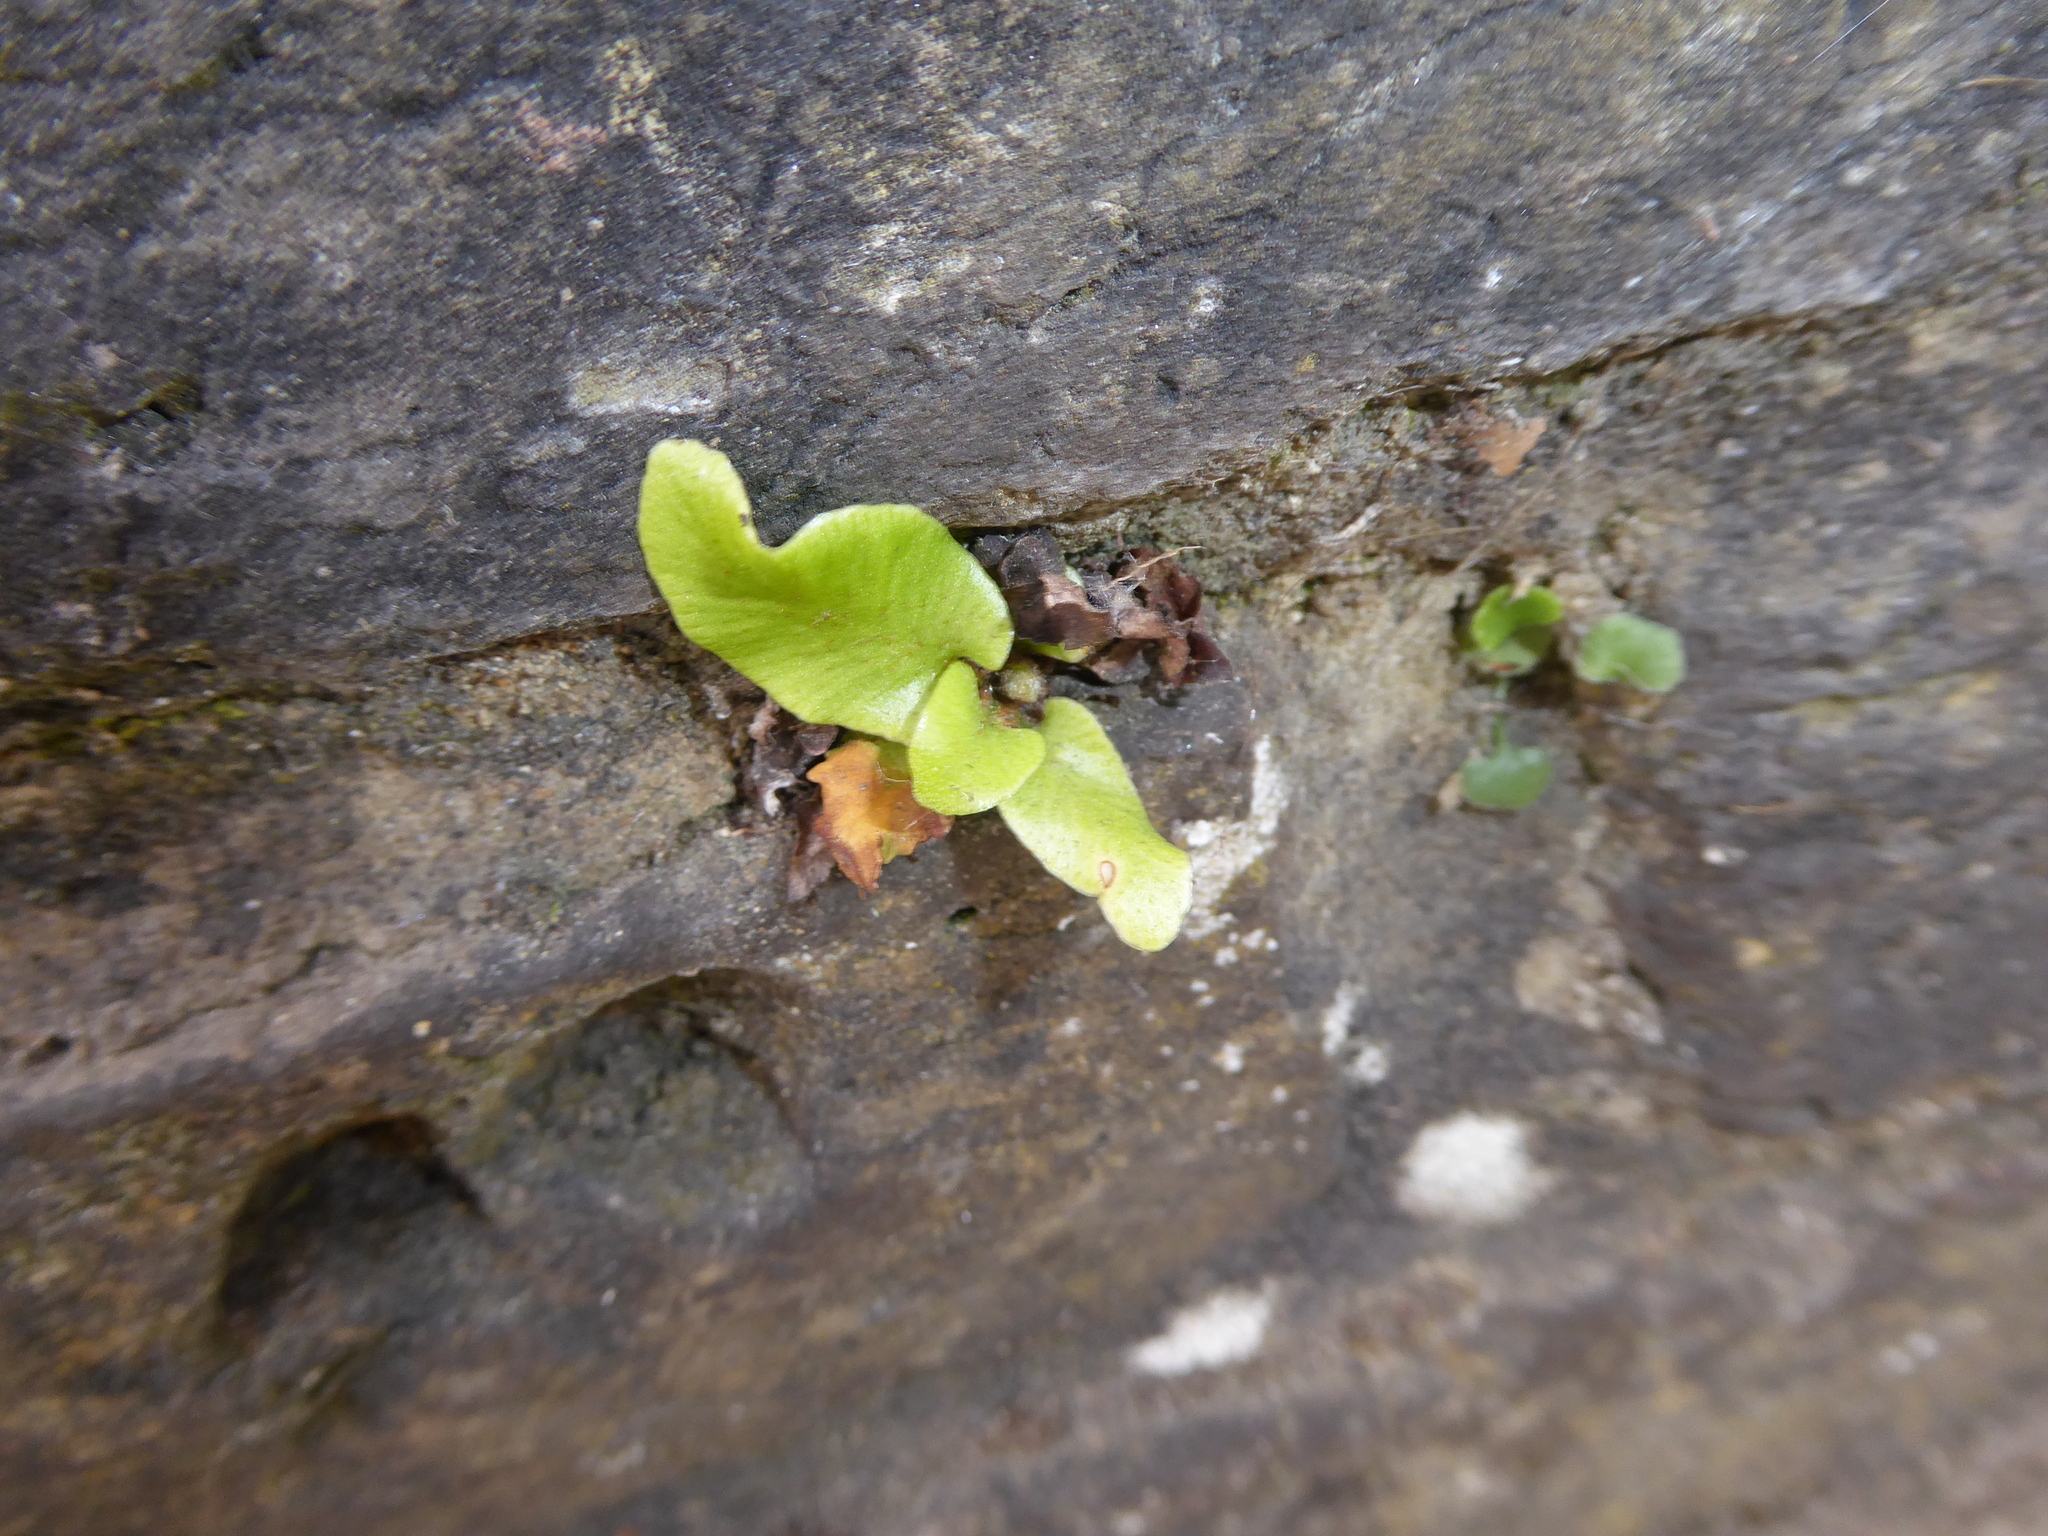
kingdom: Plantae
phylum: Tracheophyta
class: Polypodiopsida
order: Polypodiales
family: Aspleniaceae
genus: Asplenium
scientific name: Asplenium scolopendrium
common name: Hart's-tongue fern
